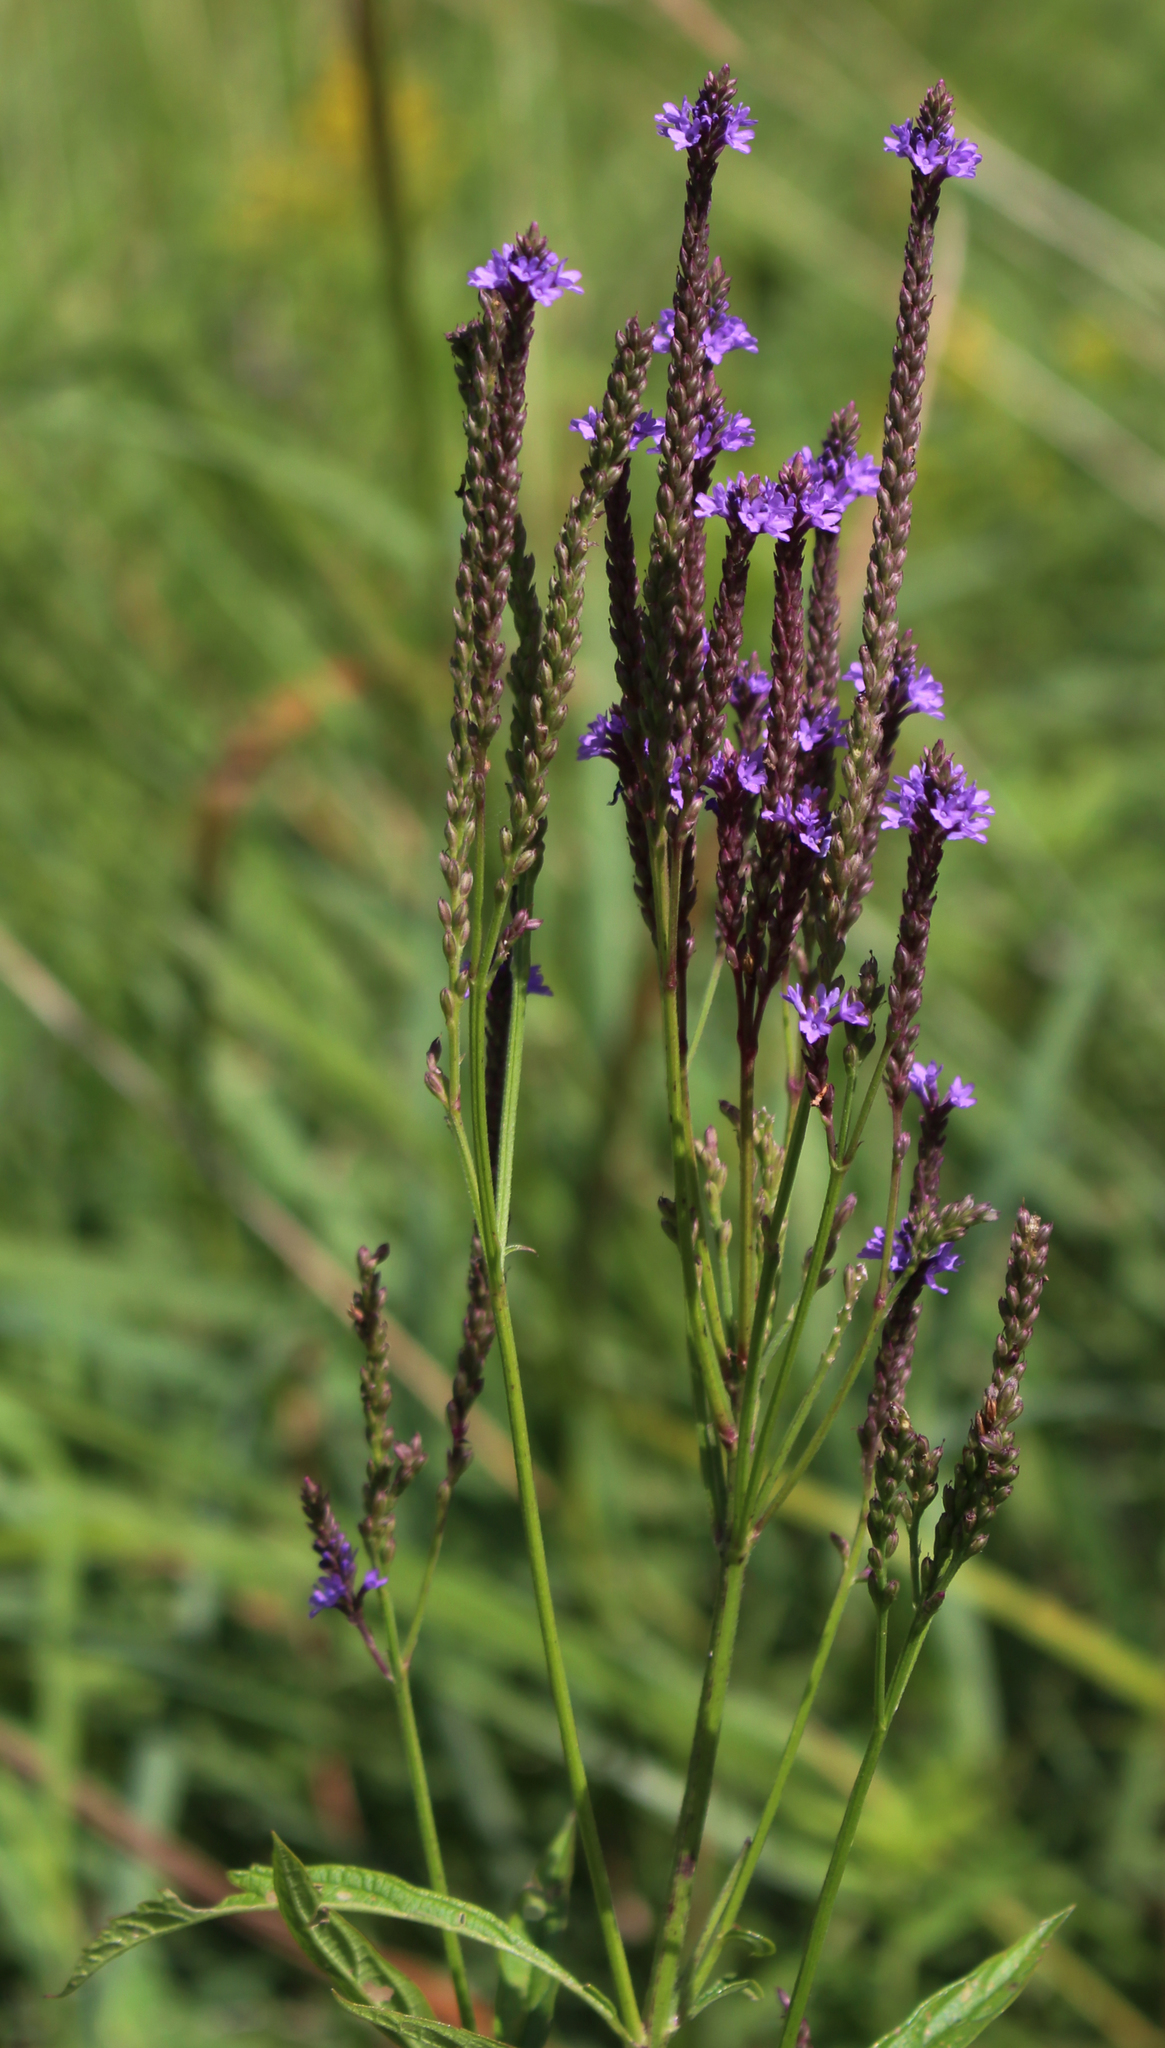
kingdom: Plantae
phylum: Tracheophyta
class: Magnoliopsida
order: Lamiales
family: Verbenaceae
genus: Verbena
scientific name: Verbena hastata
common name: American blue vervain
